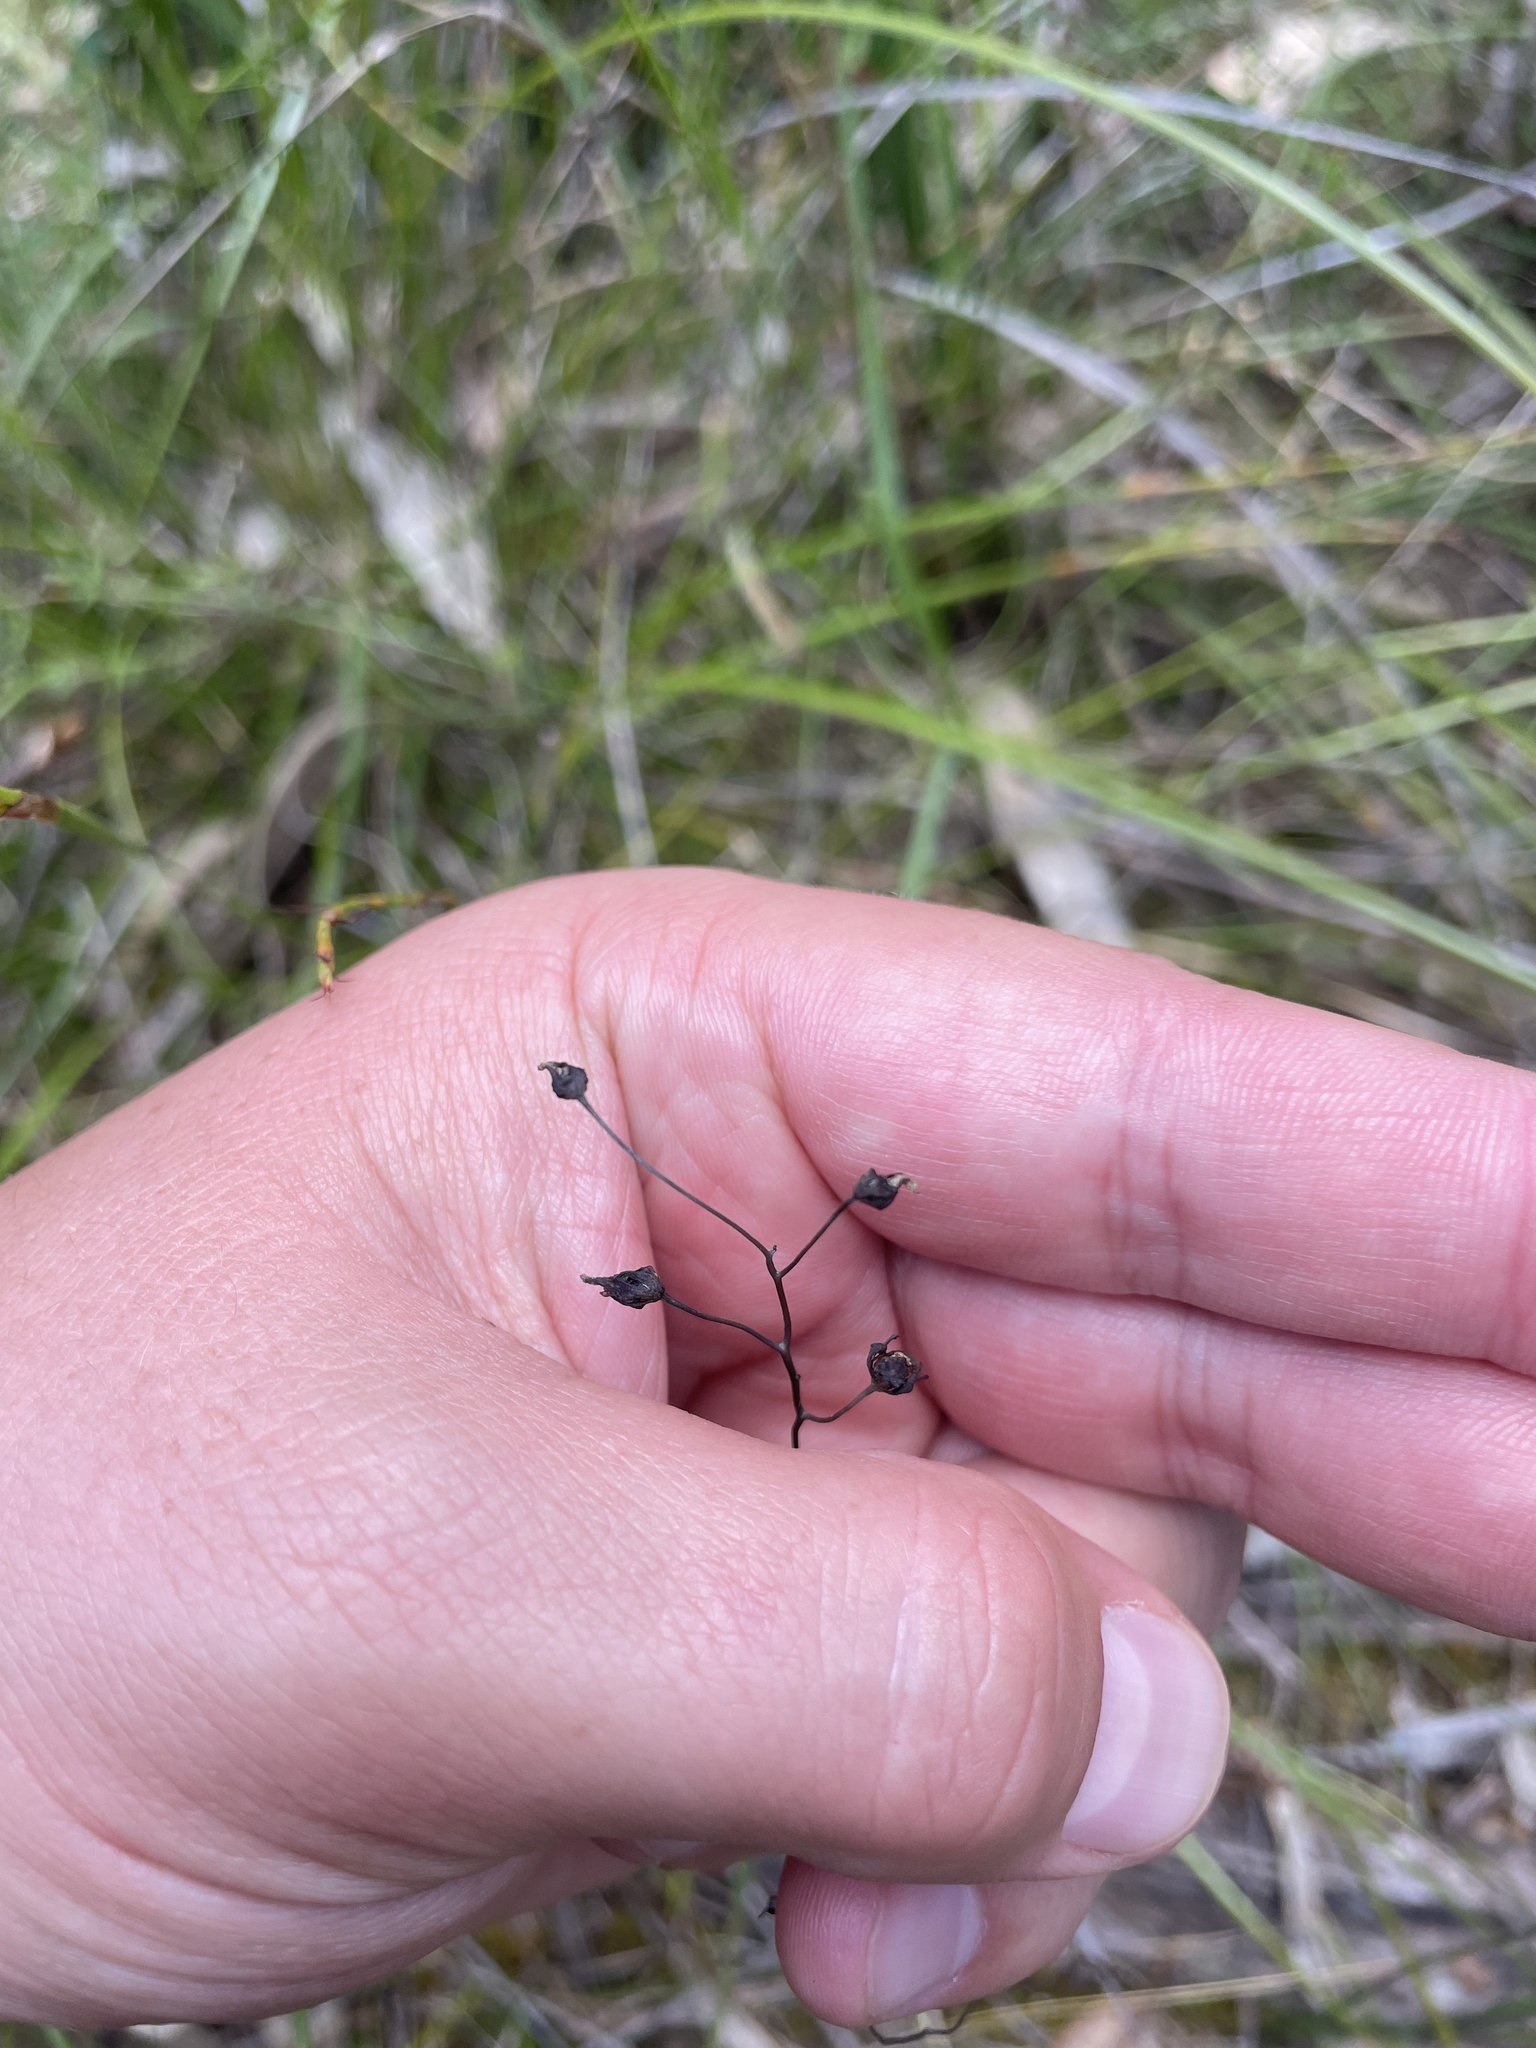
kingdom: Plantae
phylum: Tracheophyta
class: Magnoliopsida
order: Caryophyllales
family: Droseraceae
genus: Drosera
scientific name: Drosera peltata
